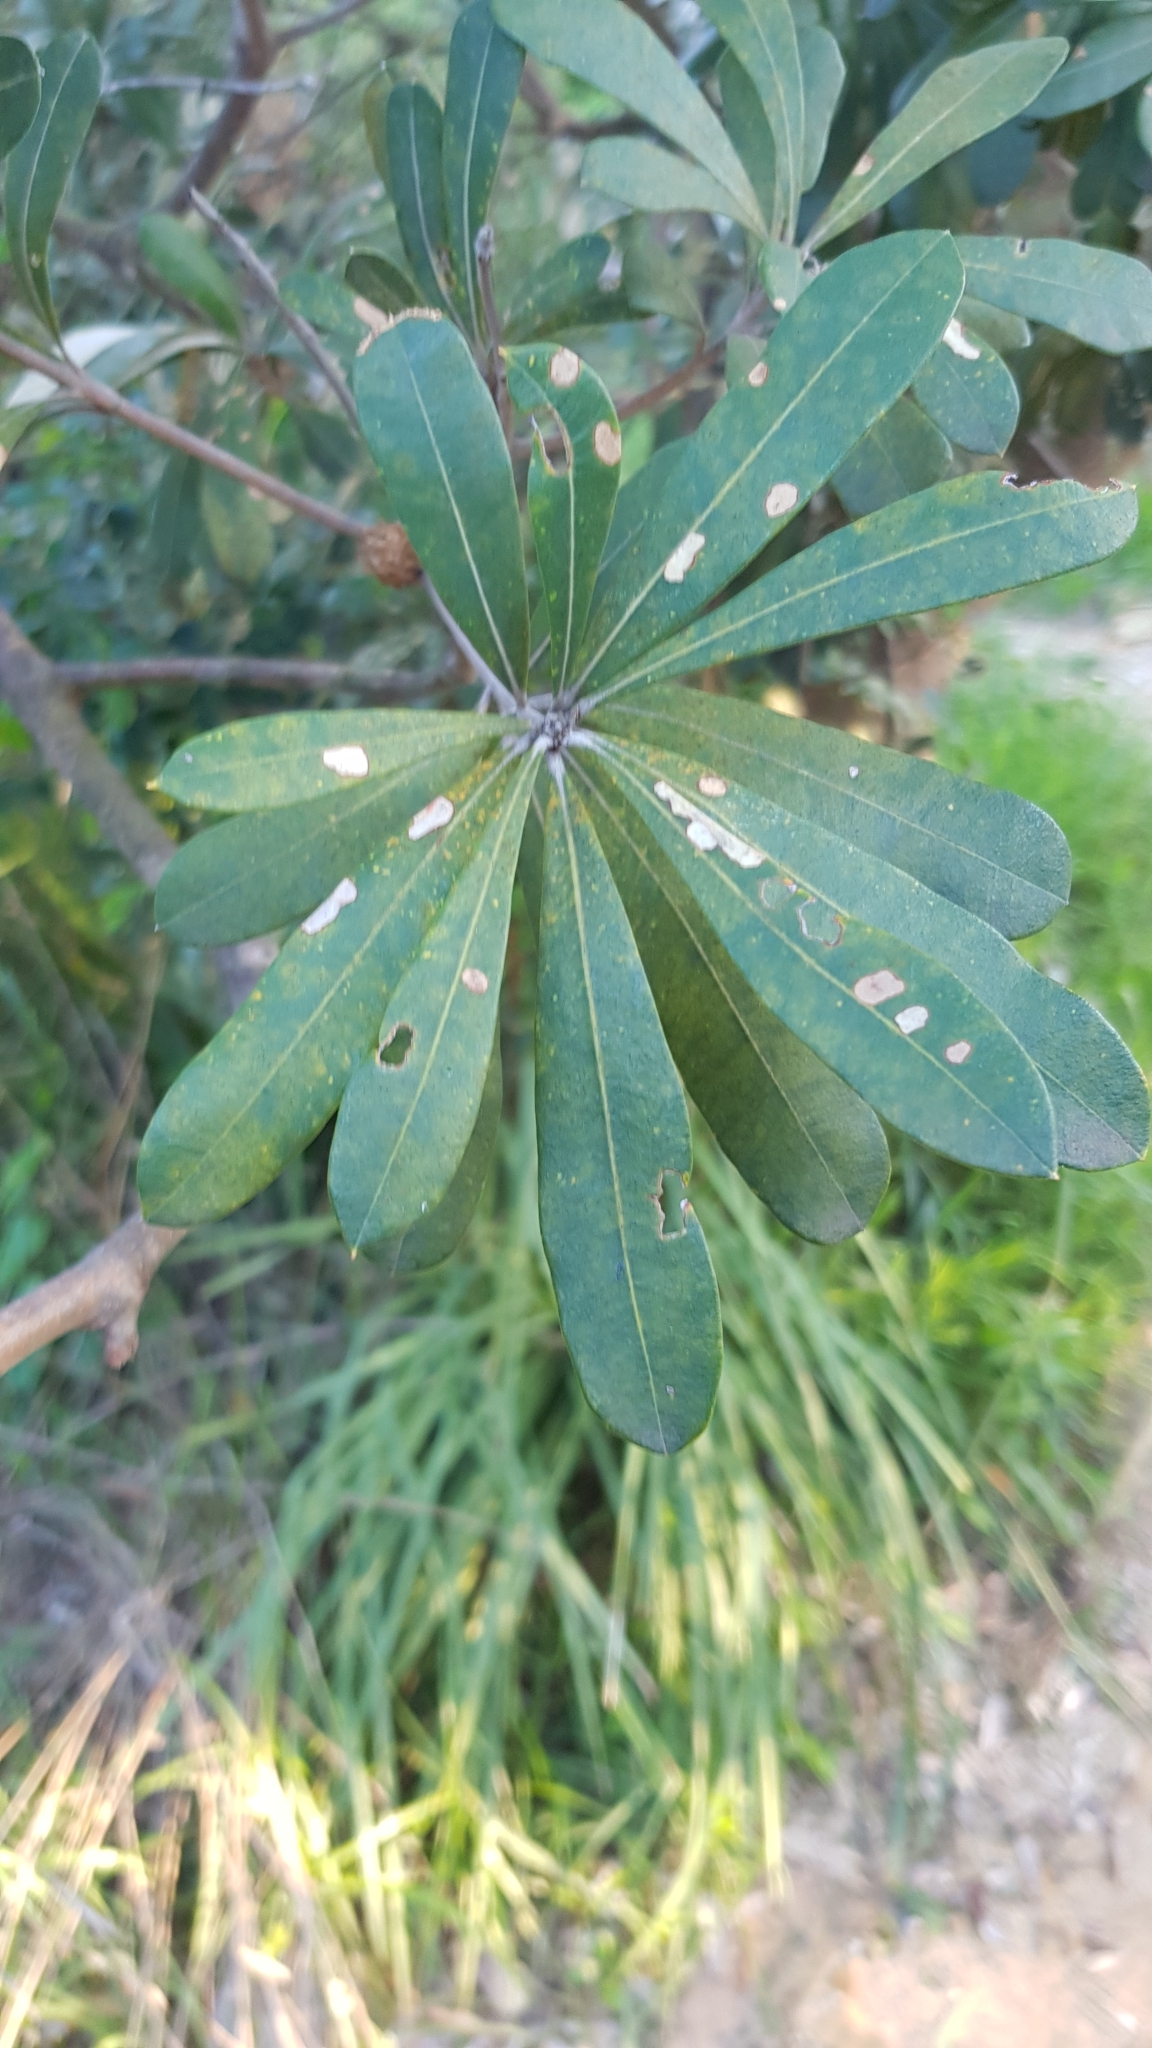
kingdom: Plantae
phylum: Tracheophyta
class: Magnoliopsida
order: Proteales
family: Proteaceae
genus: Banksia
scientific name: Banksia integrifolia
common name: White-honeysuckle
